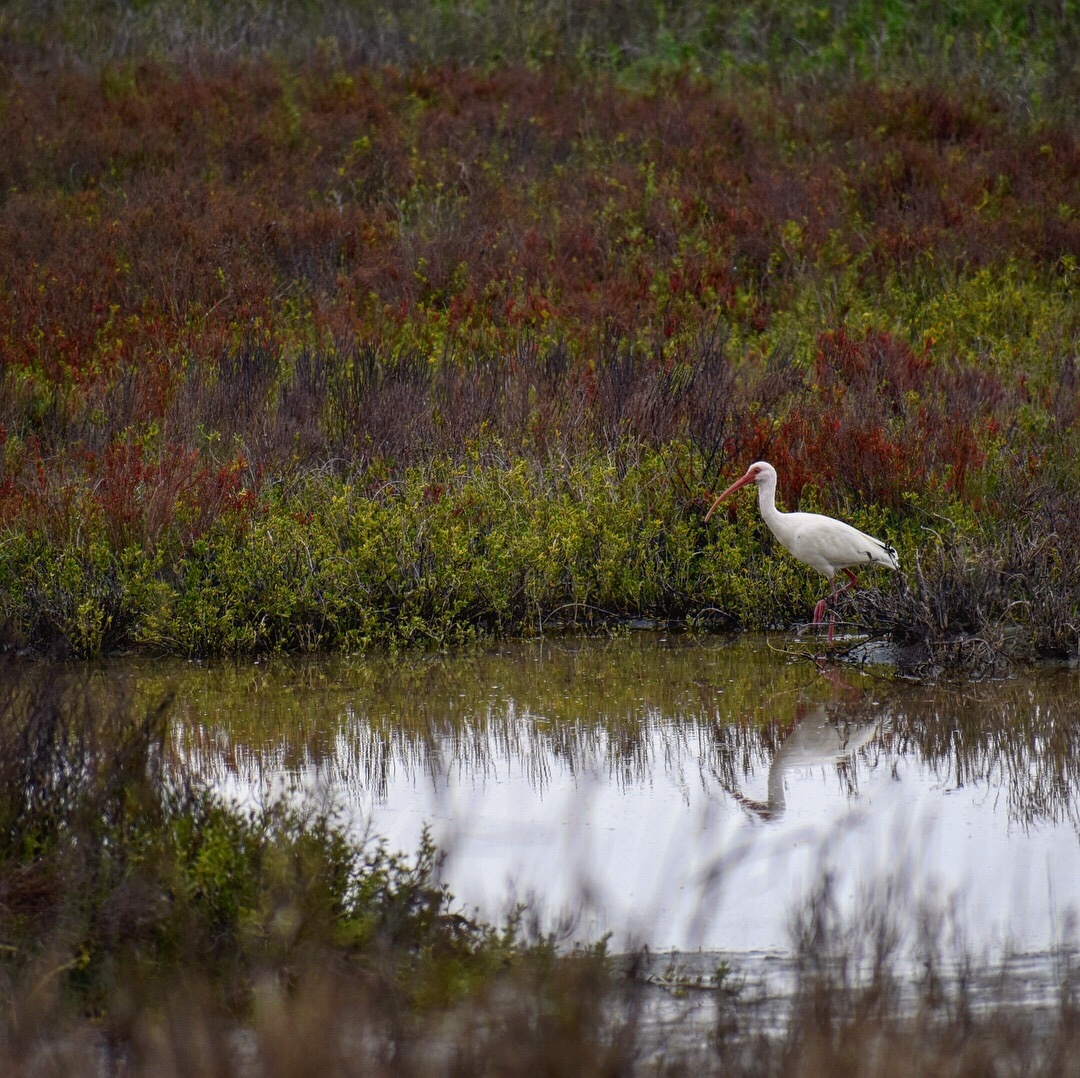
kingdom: Animalia
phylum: Chordata
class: Aves
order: Pelecaniformes
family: Threskiornithidae
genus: Eudocimus
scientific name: Eudocimus albus
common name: White ibis
